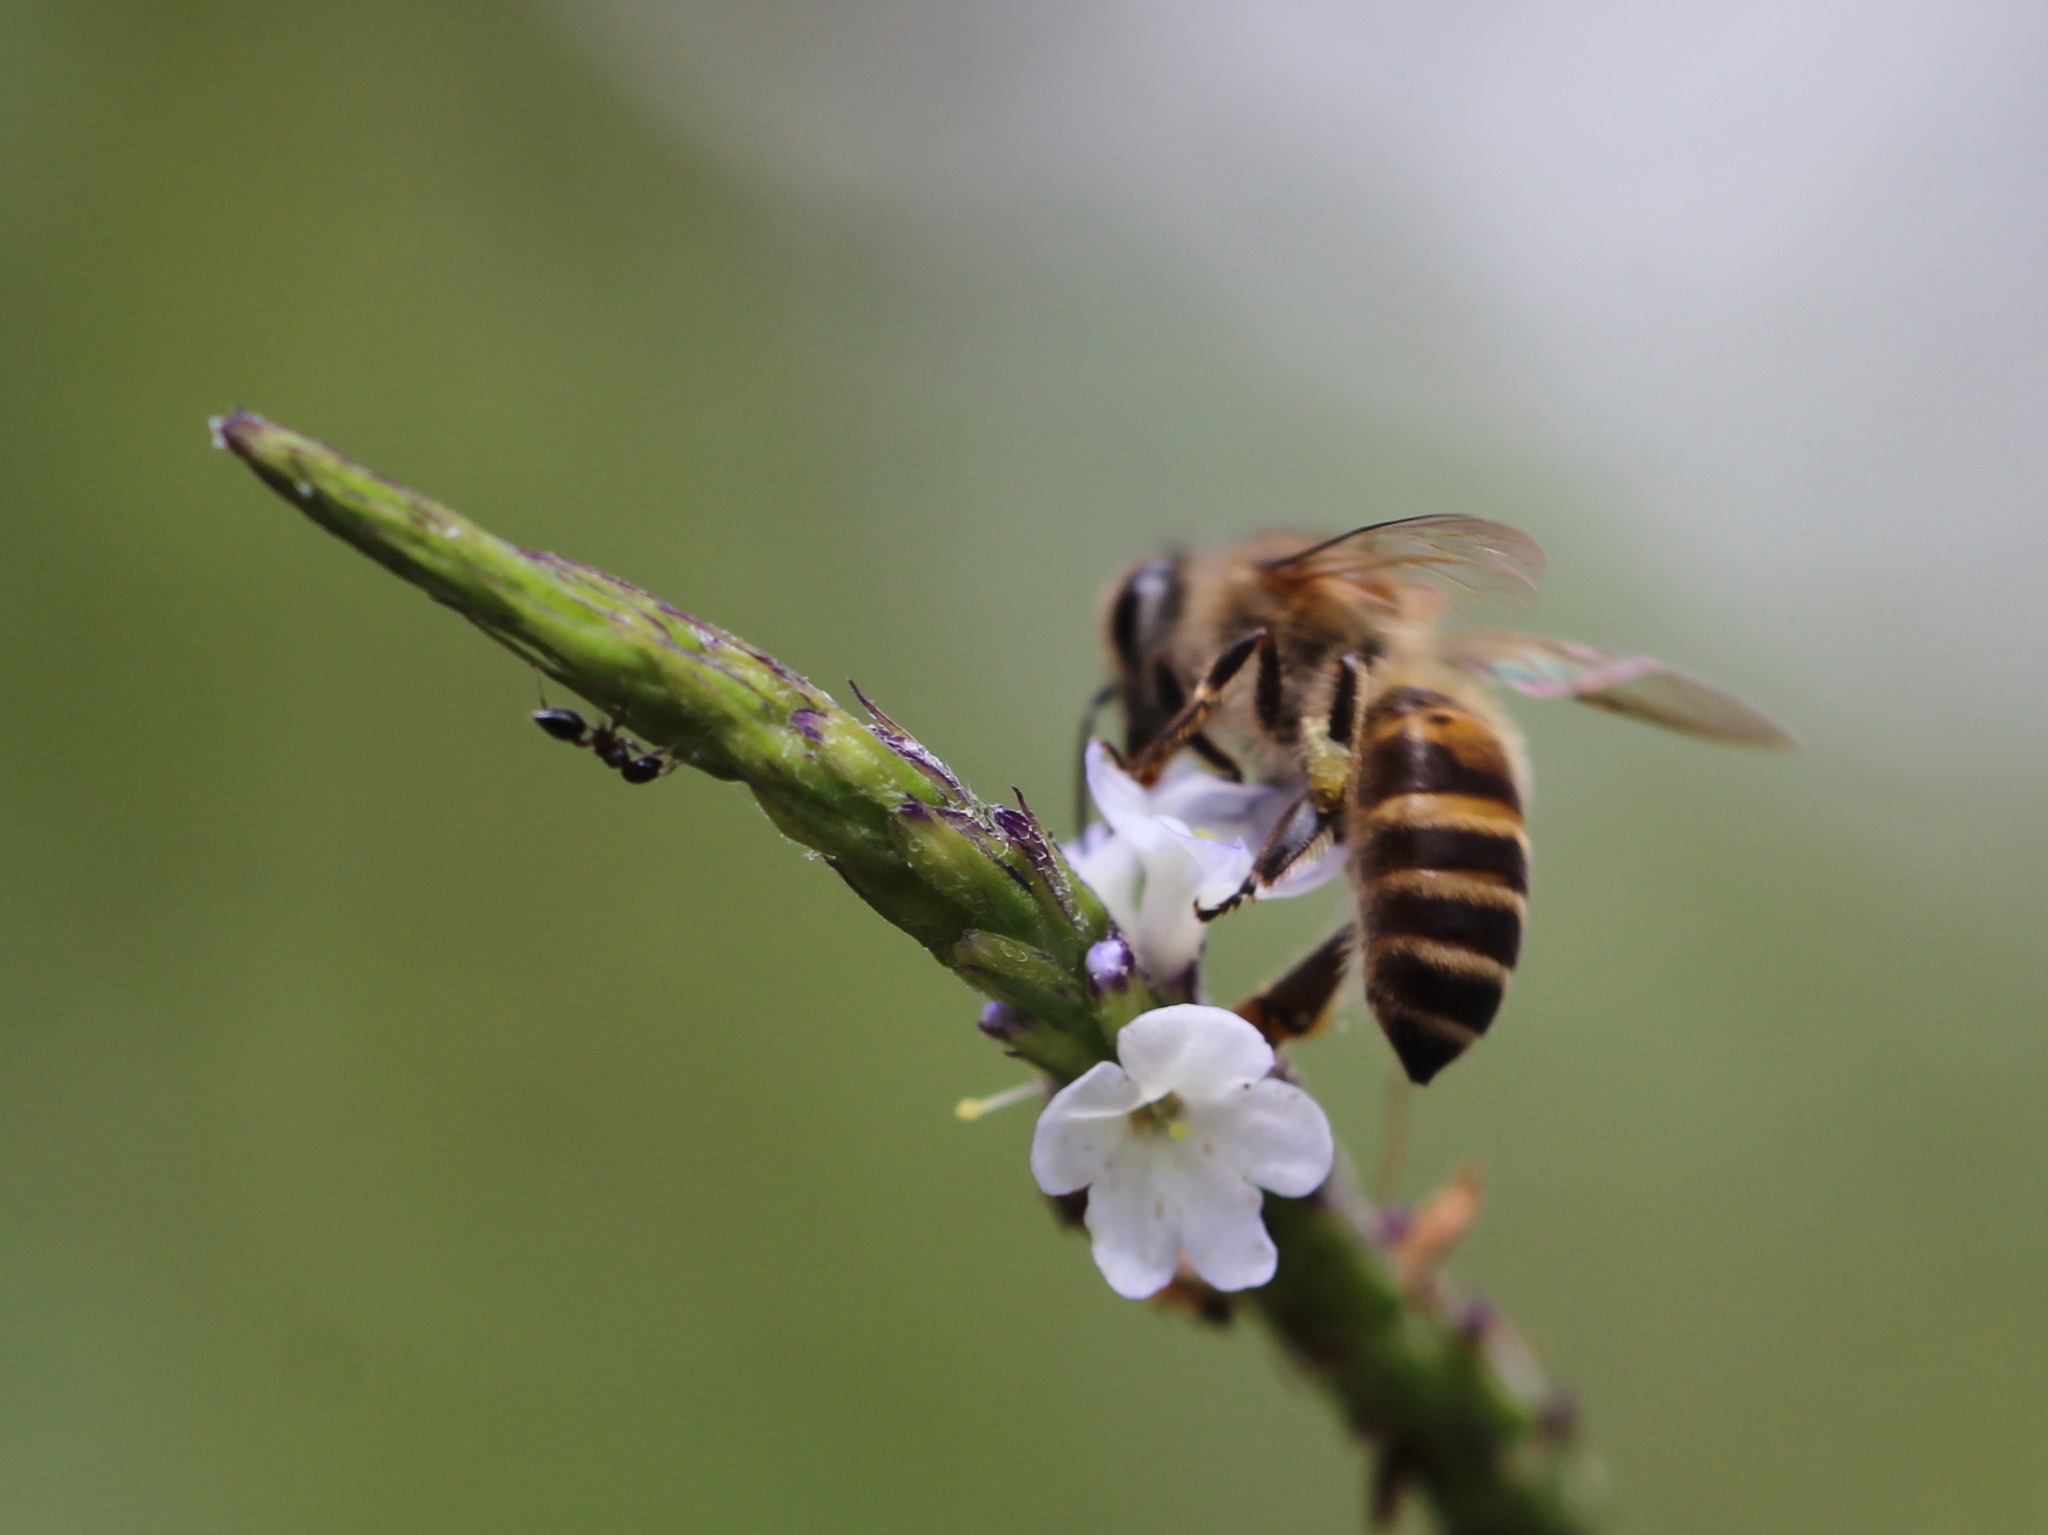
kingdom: Animalia
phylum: Arthropoda
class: Insecta
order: Hymenoptera
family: Apidae
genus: Apis
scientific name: Apis cerana
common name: Honey bee
